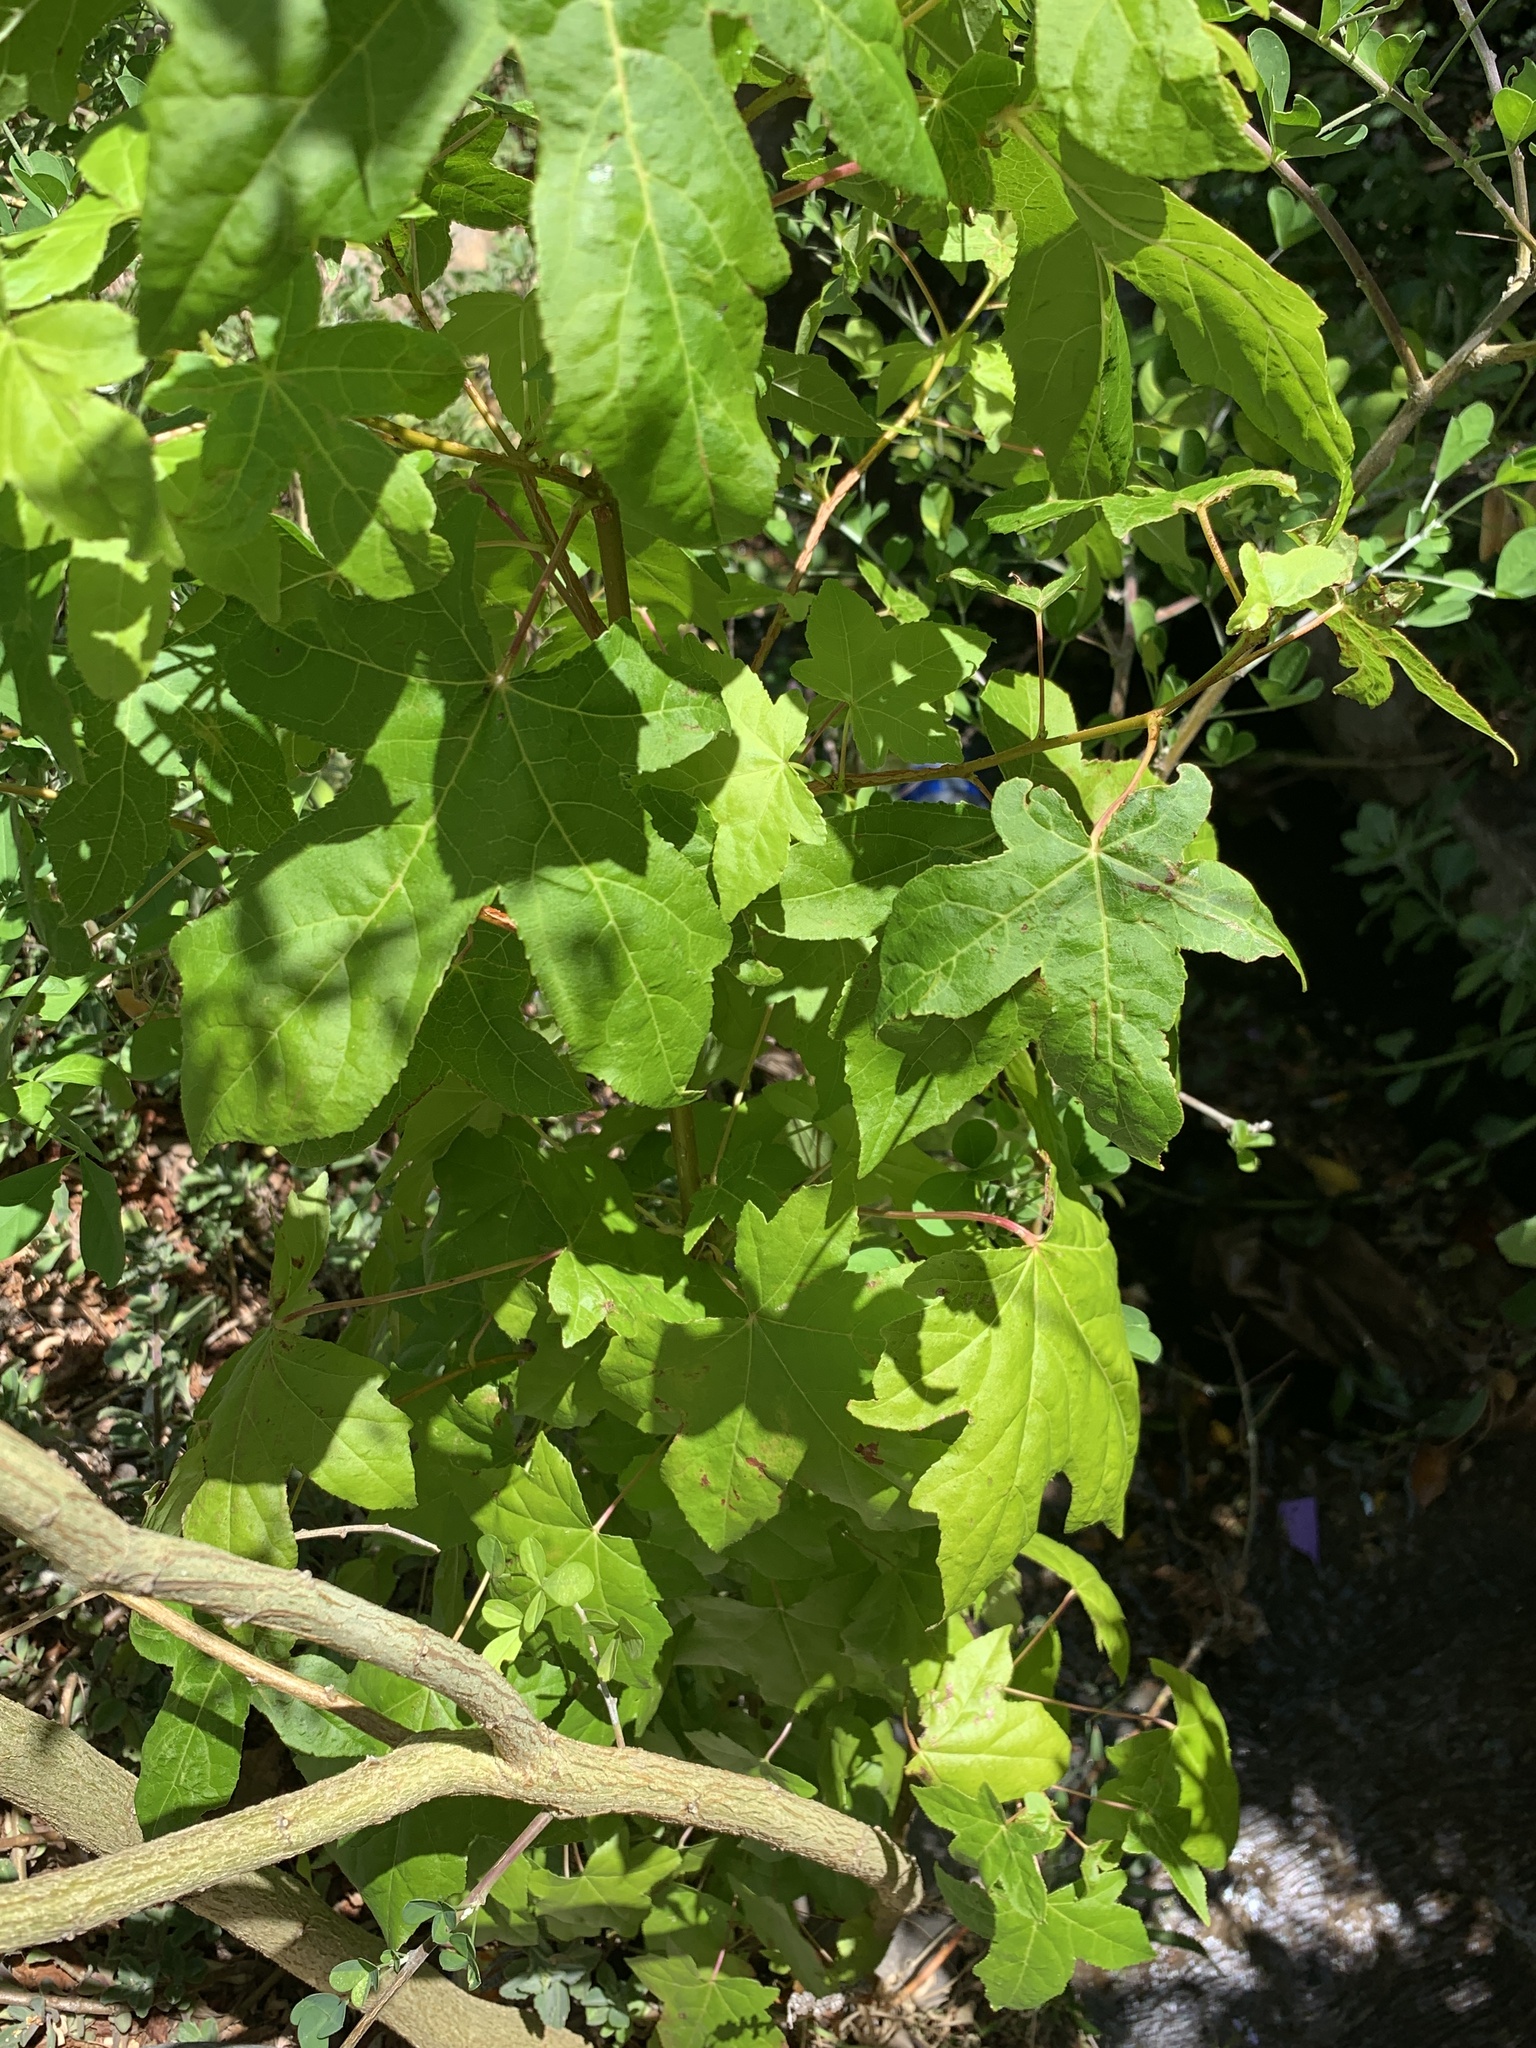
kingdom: Plantae
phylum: Tracheophyta
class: Magnoliopsida
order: Saxifragales
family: Altingiaceae
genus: Liquidambar
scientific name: Liquidambar styraciflua
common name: Sweet gum
